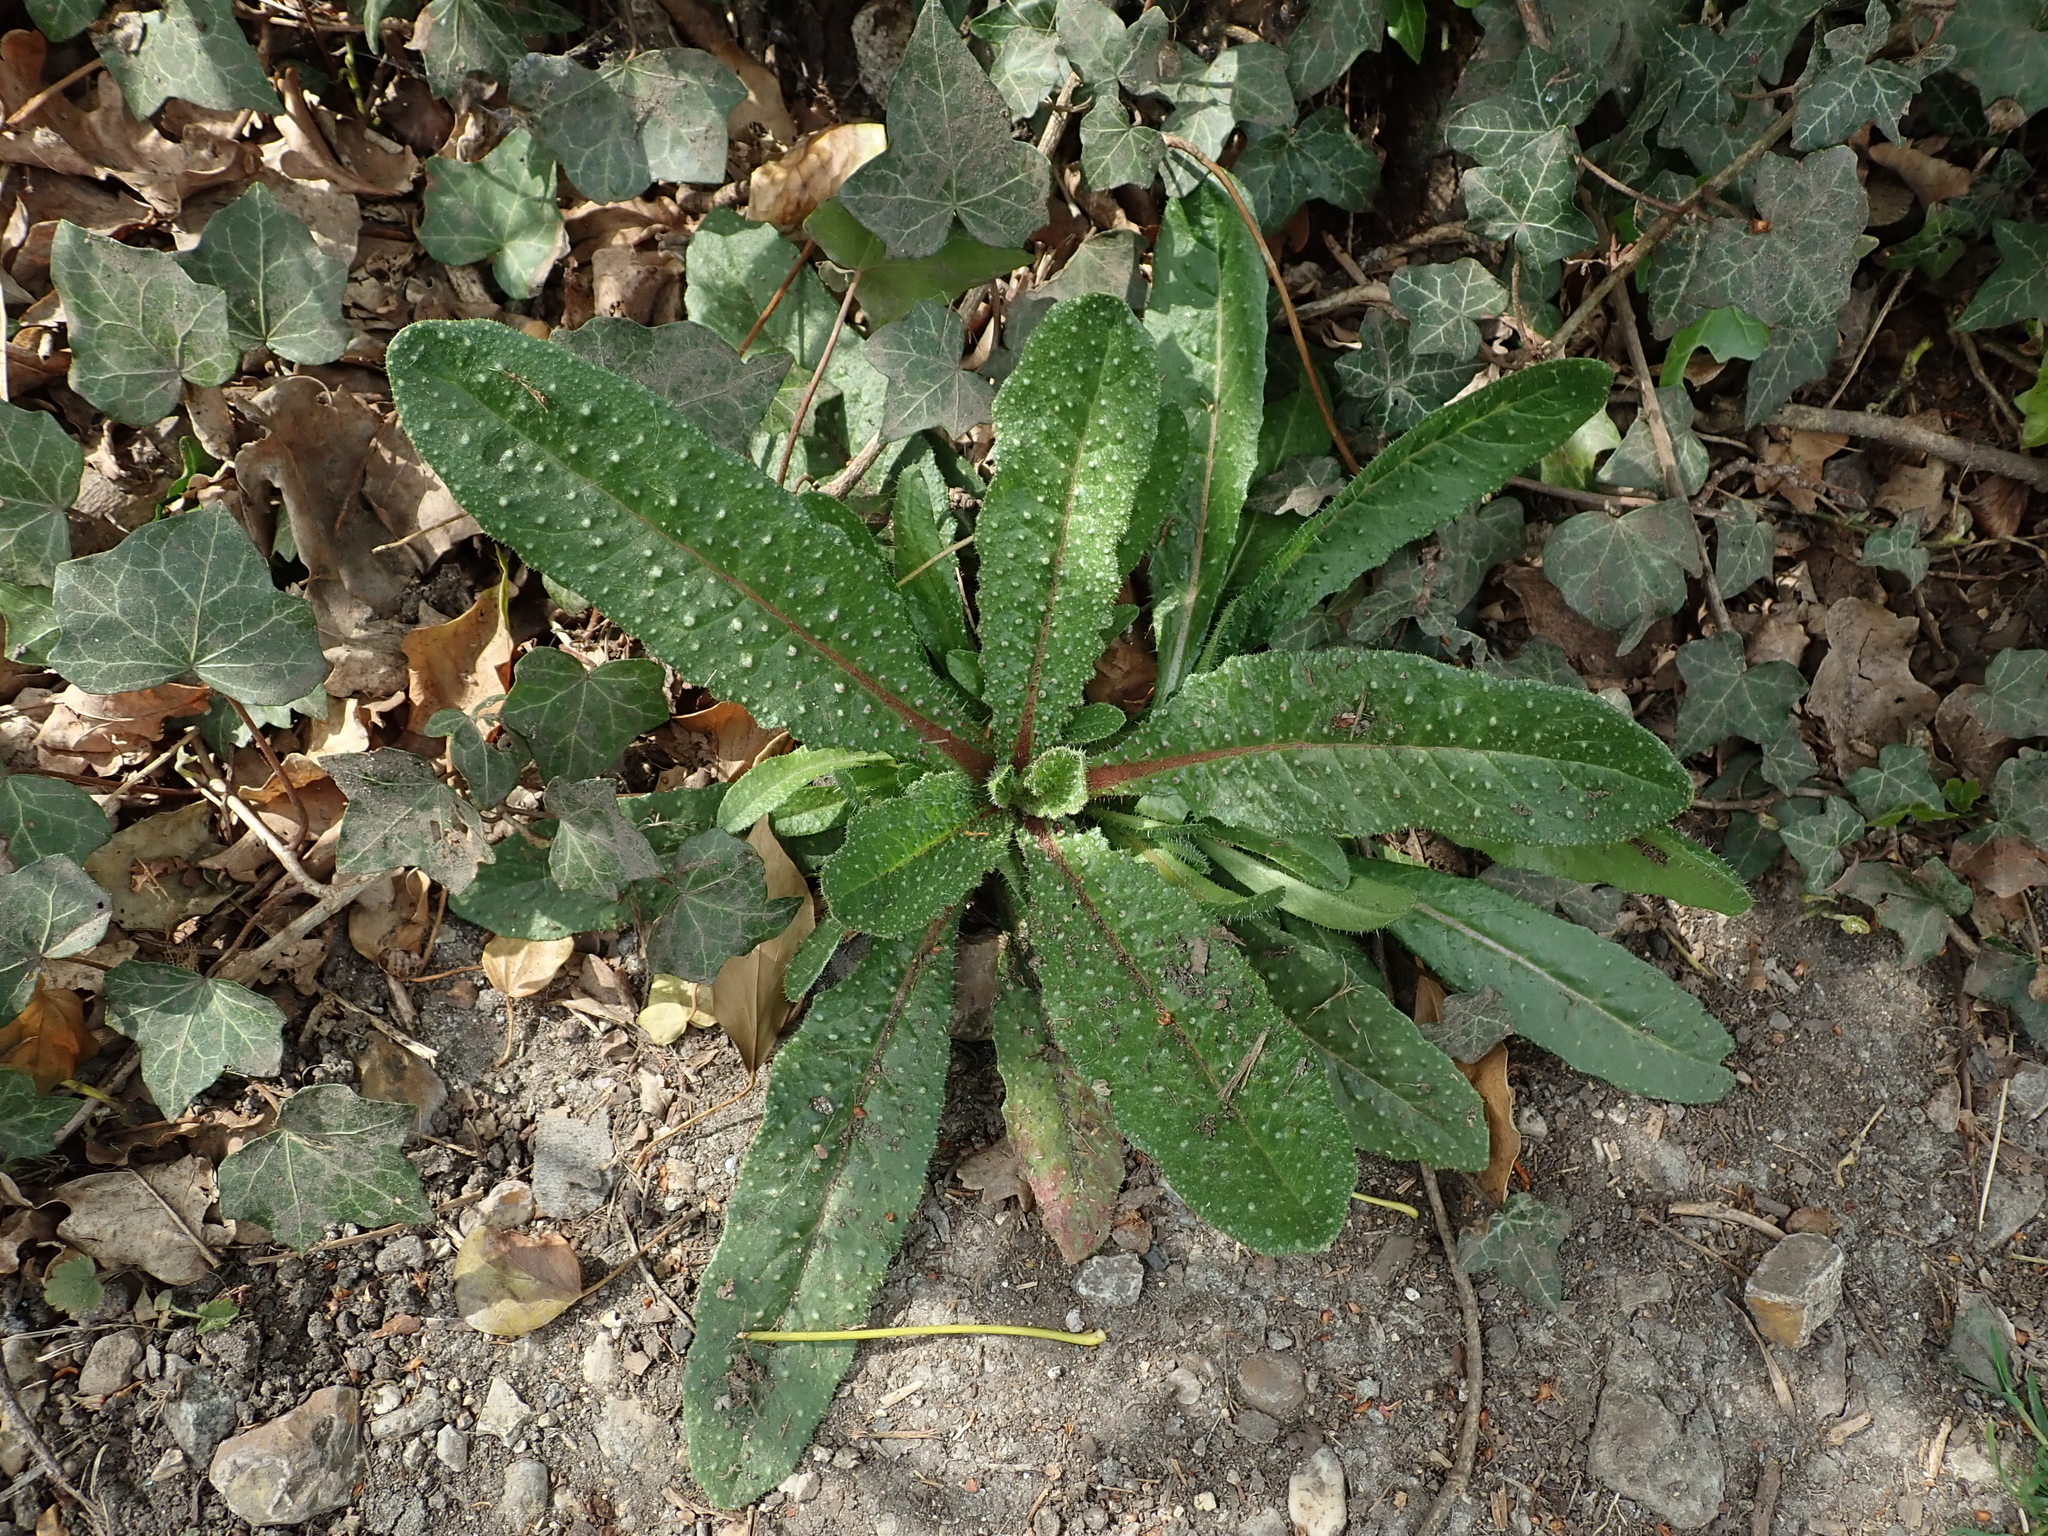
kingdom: Plantae
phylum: Tracheophyta
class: Magnoliopsida
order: Asterales
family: Asteraceae
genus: Helminthotheca
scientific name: Helminthotheca echioides
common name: Ox-tongue
